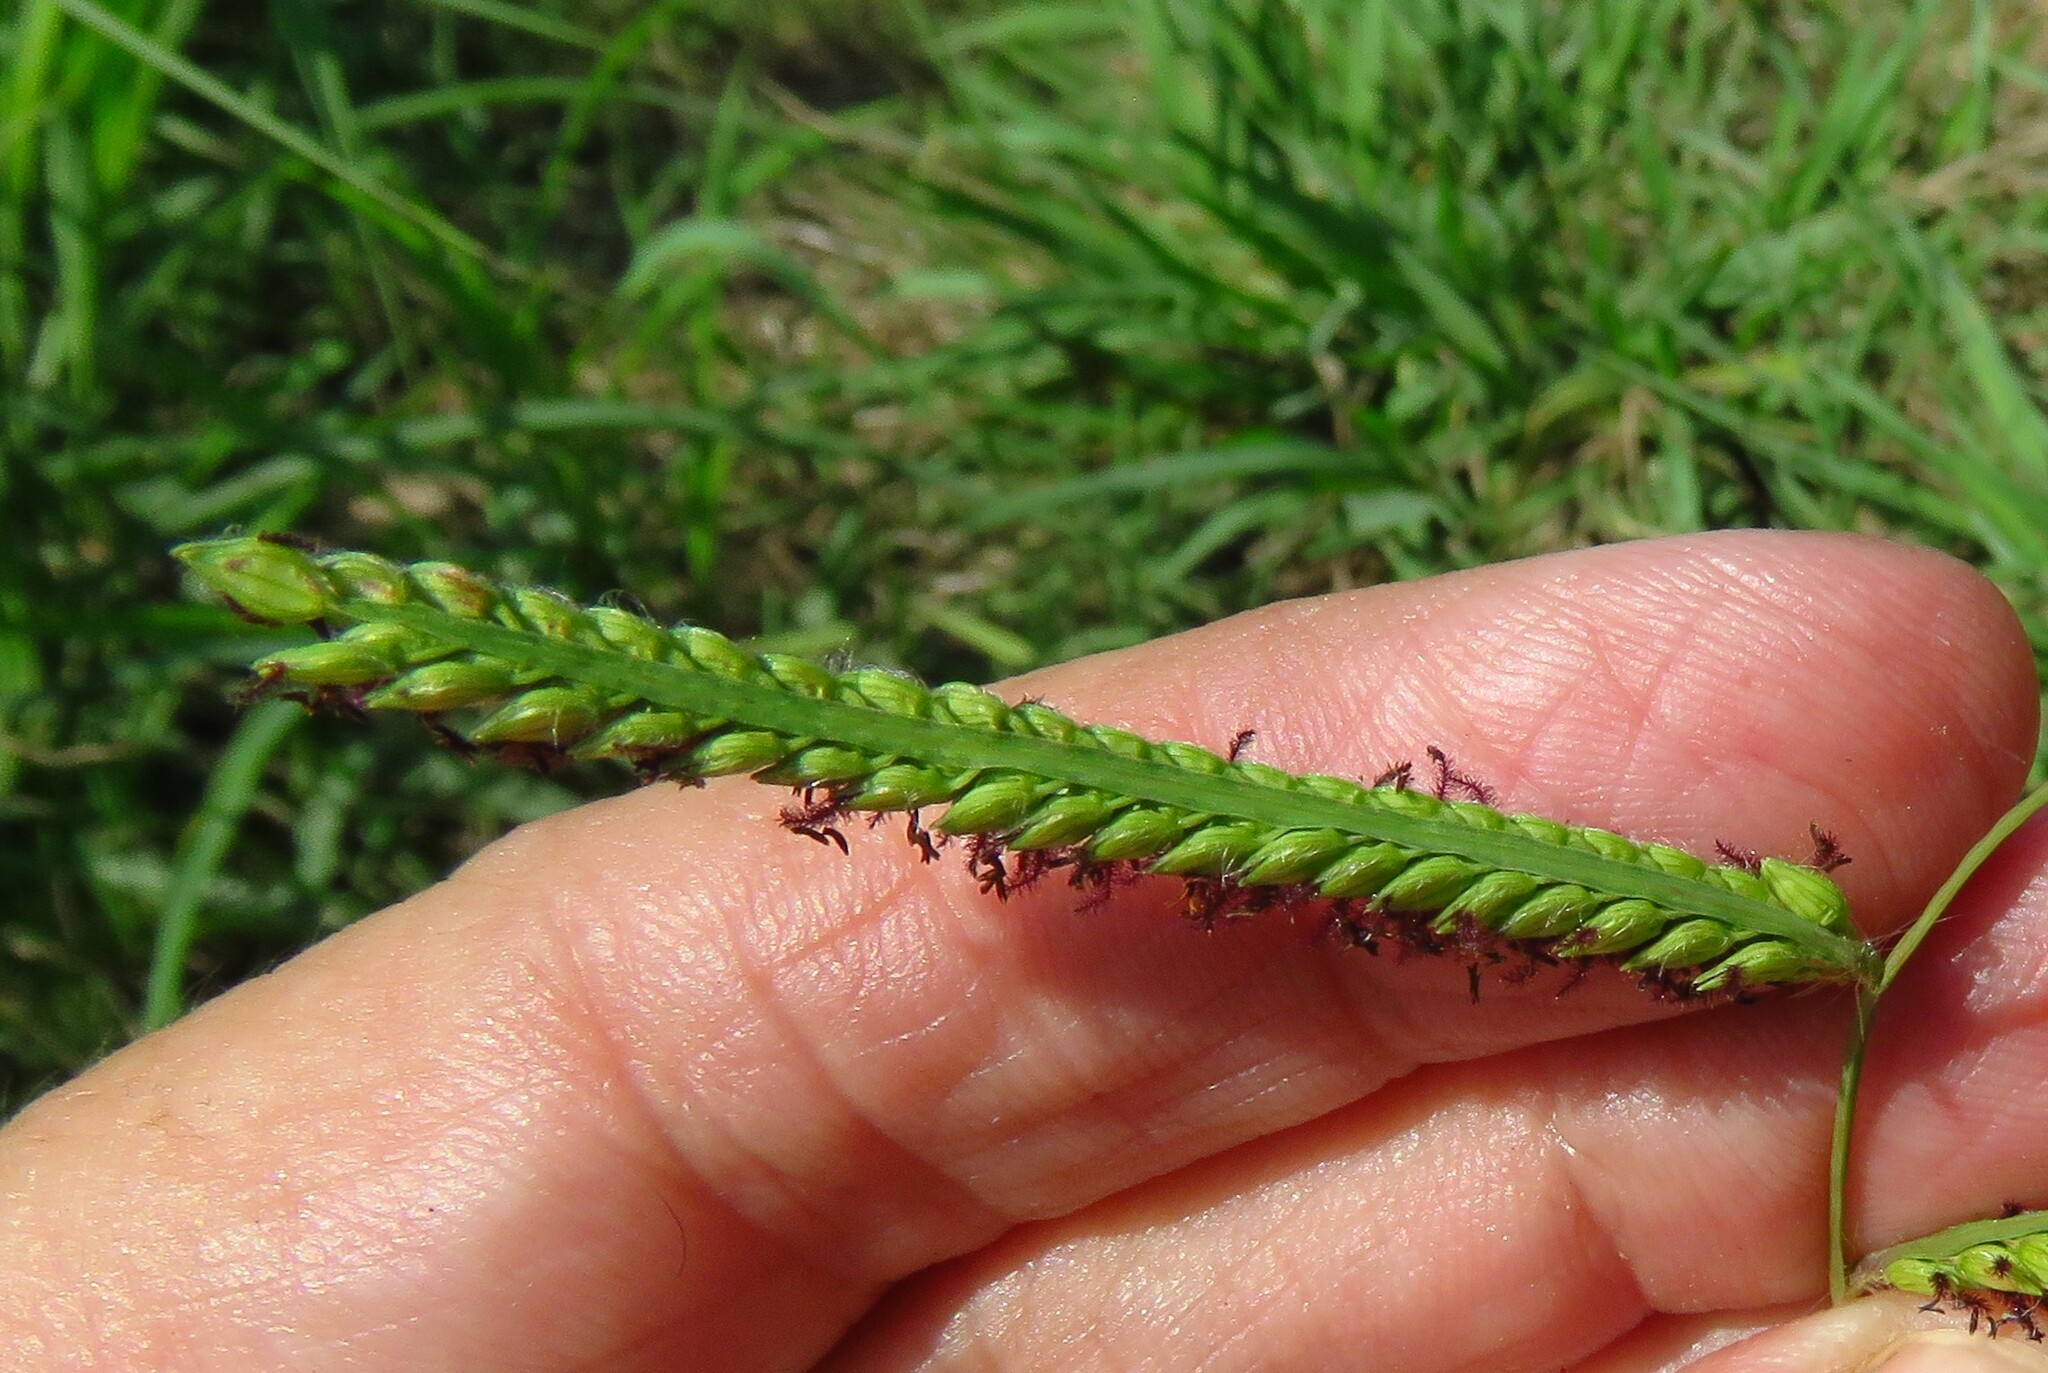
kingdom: Plantae
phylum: Tracheophyta
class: Liliopsida
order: Poales
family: Poaceae
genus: Paspalum
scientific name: Paspalum dilatatum
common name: Dallisgrass
